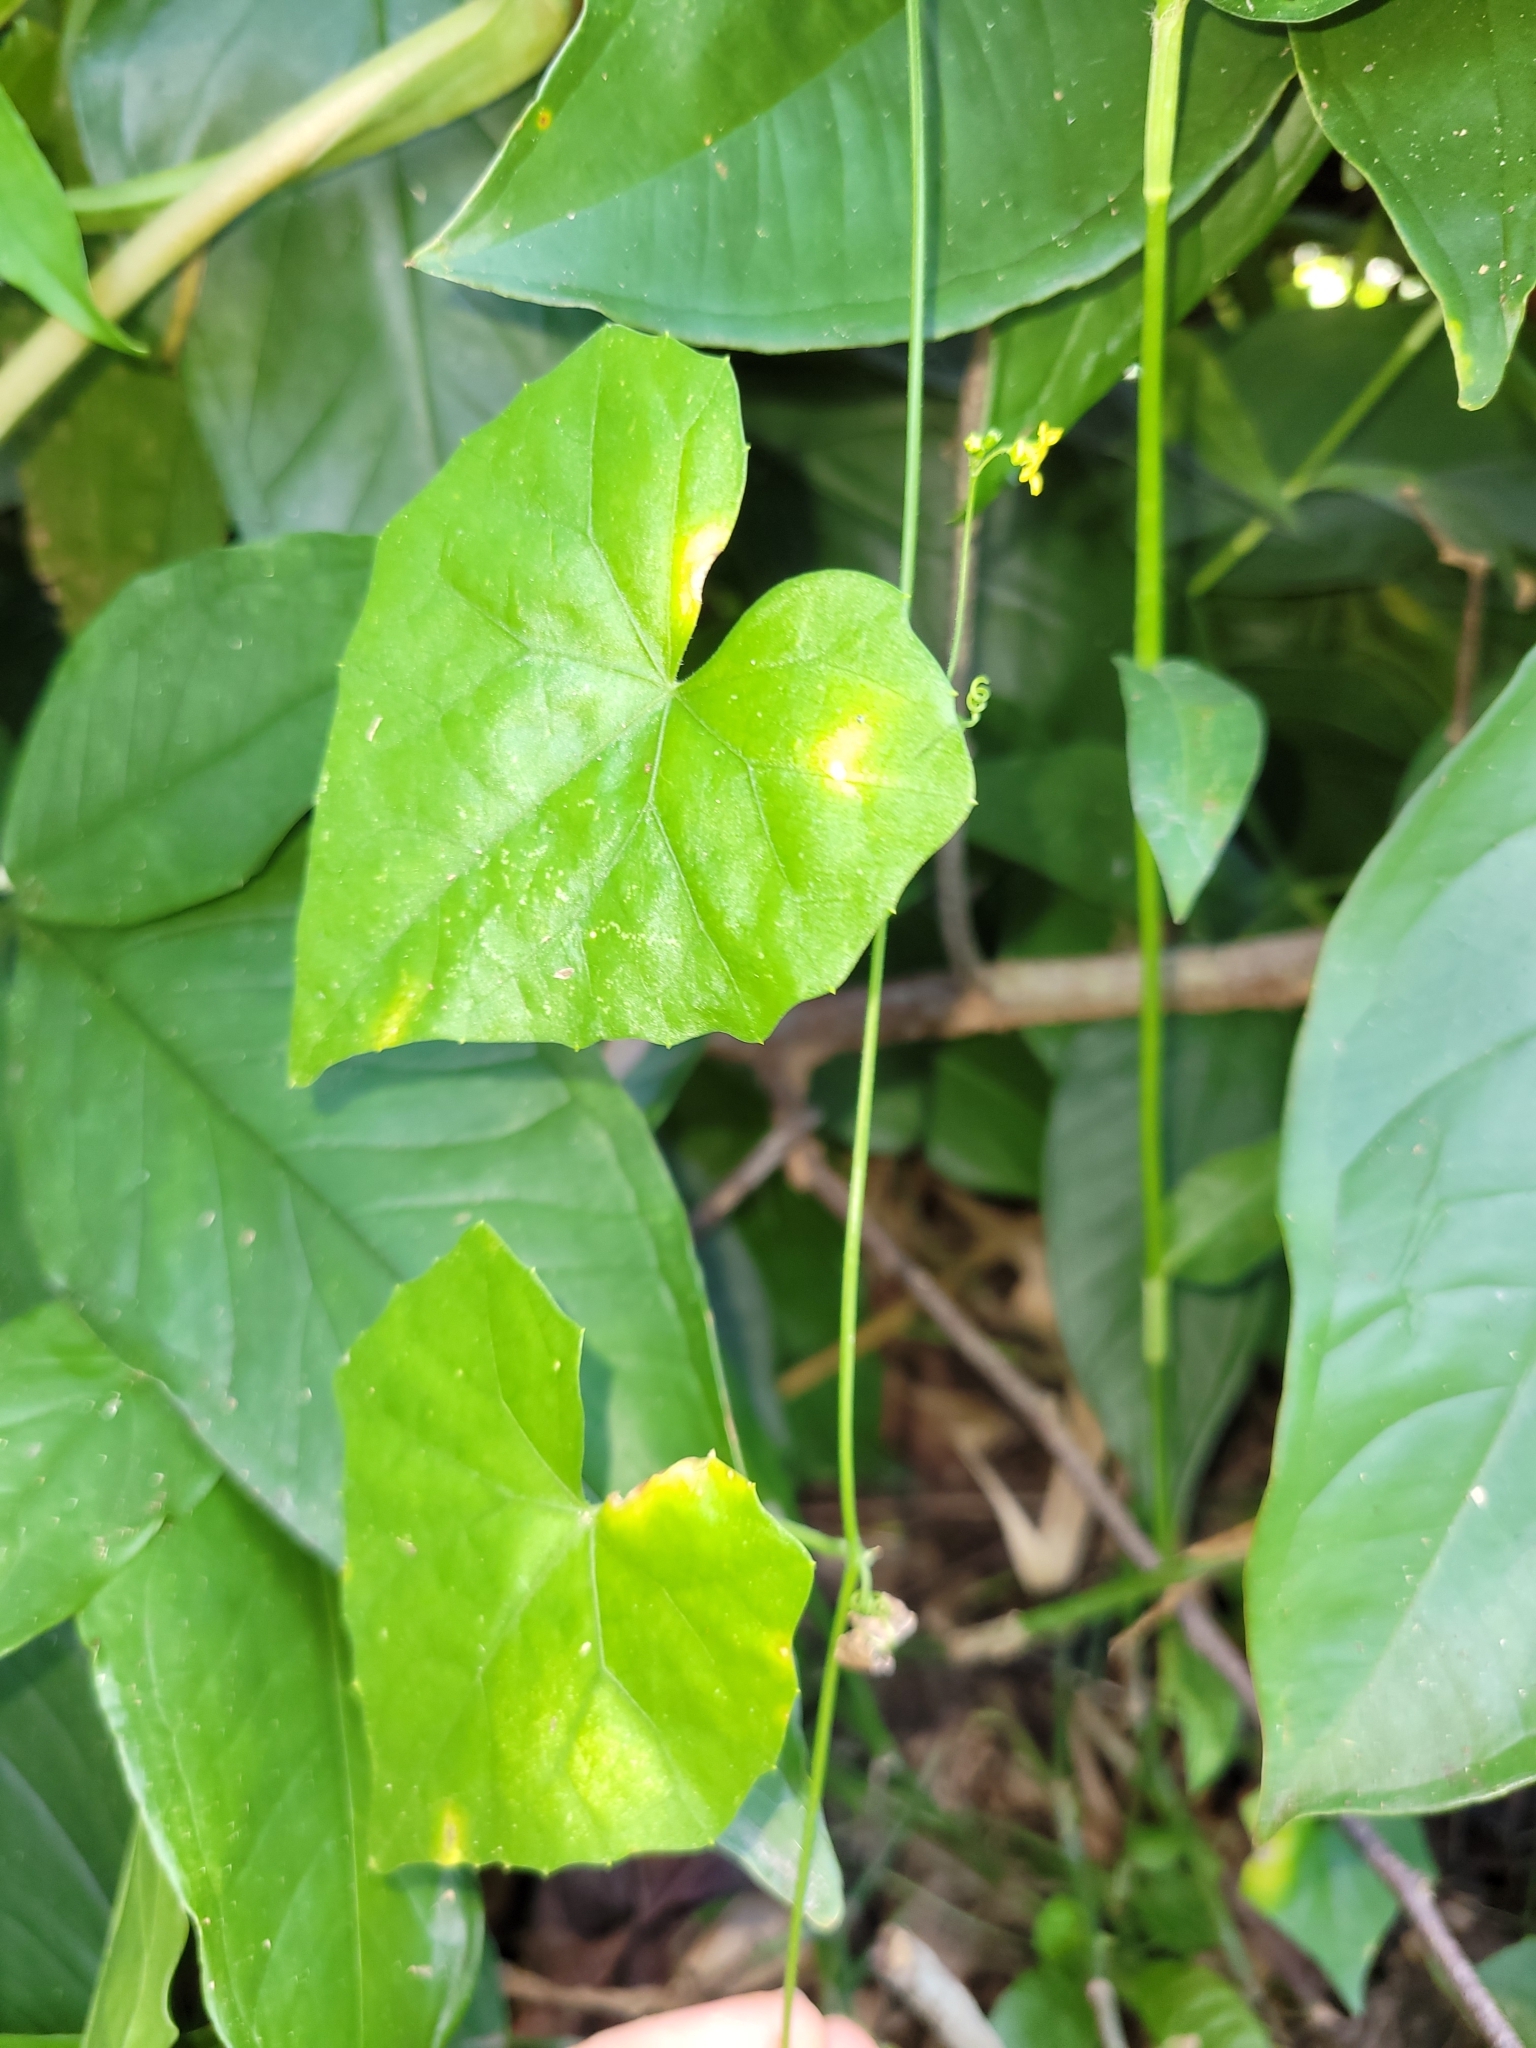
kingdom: Plantae
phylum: Tracheophyta
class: Magnoliopsida
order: Cucurbitales
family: Cucurbitaceae
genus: Melothria
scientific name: Melothria pendula
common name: Creeping-cucumber
